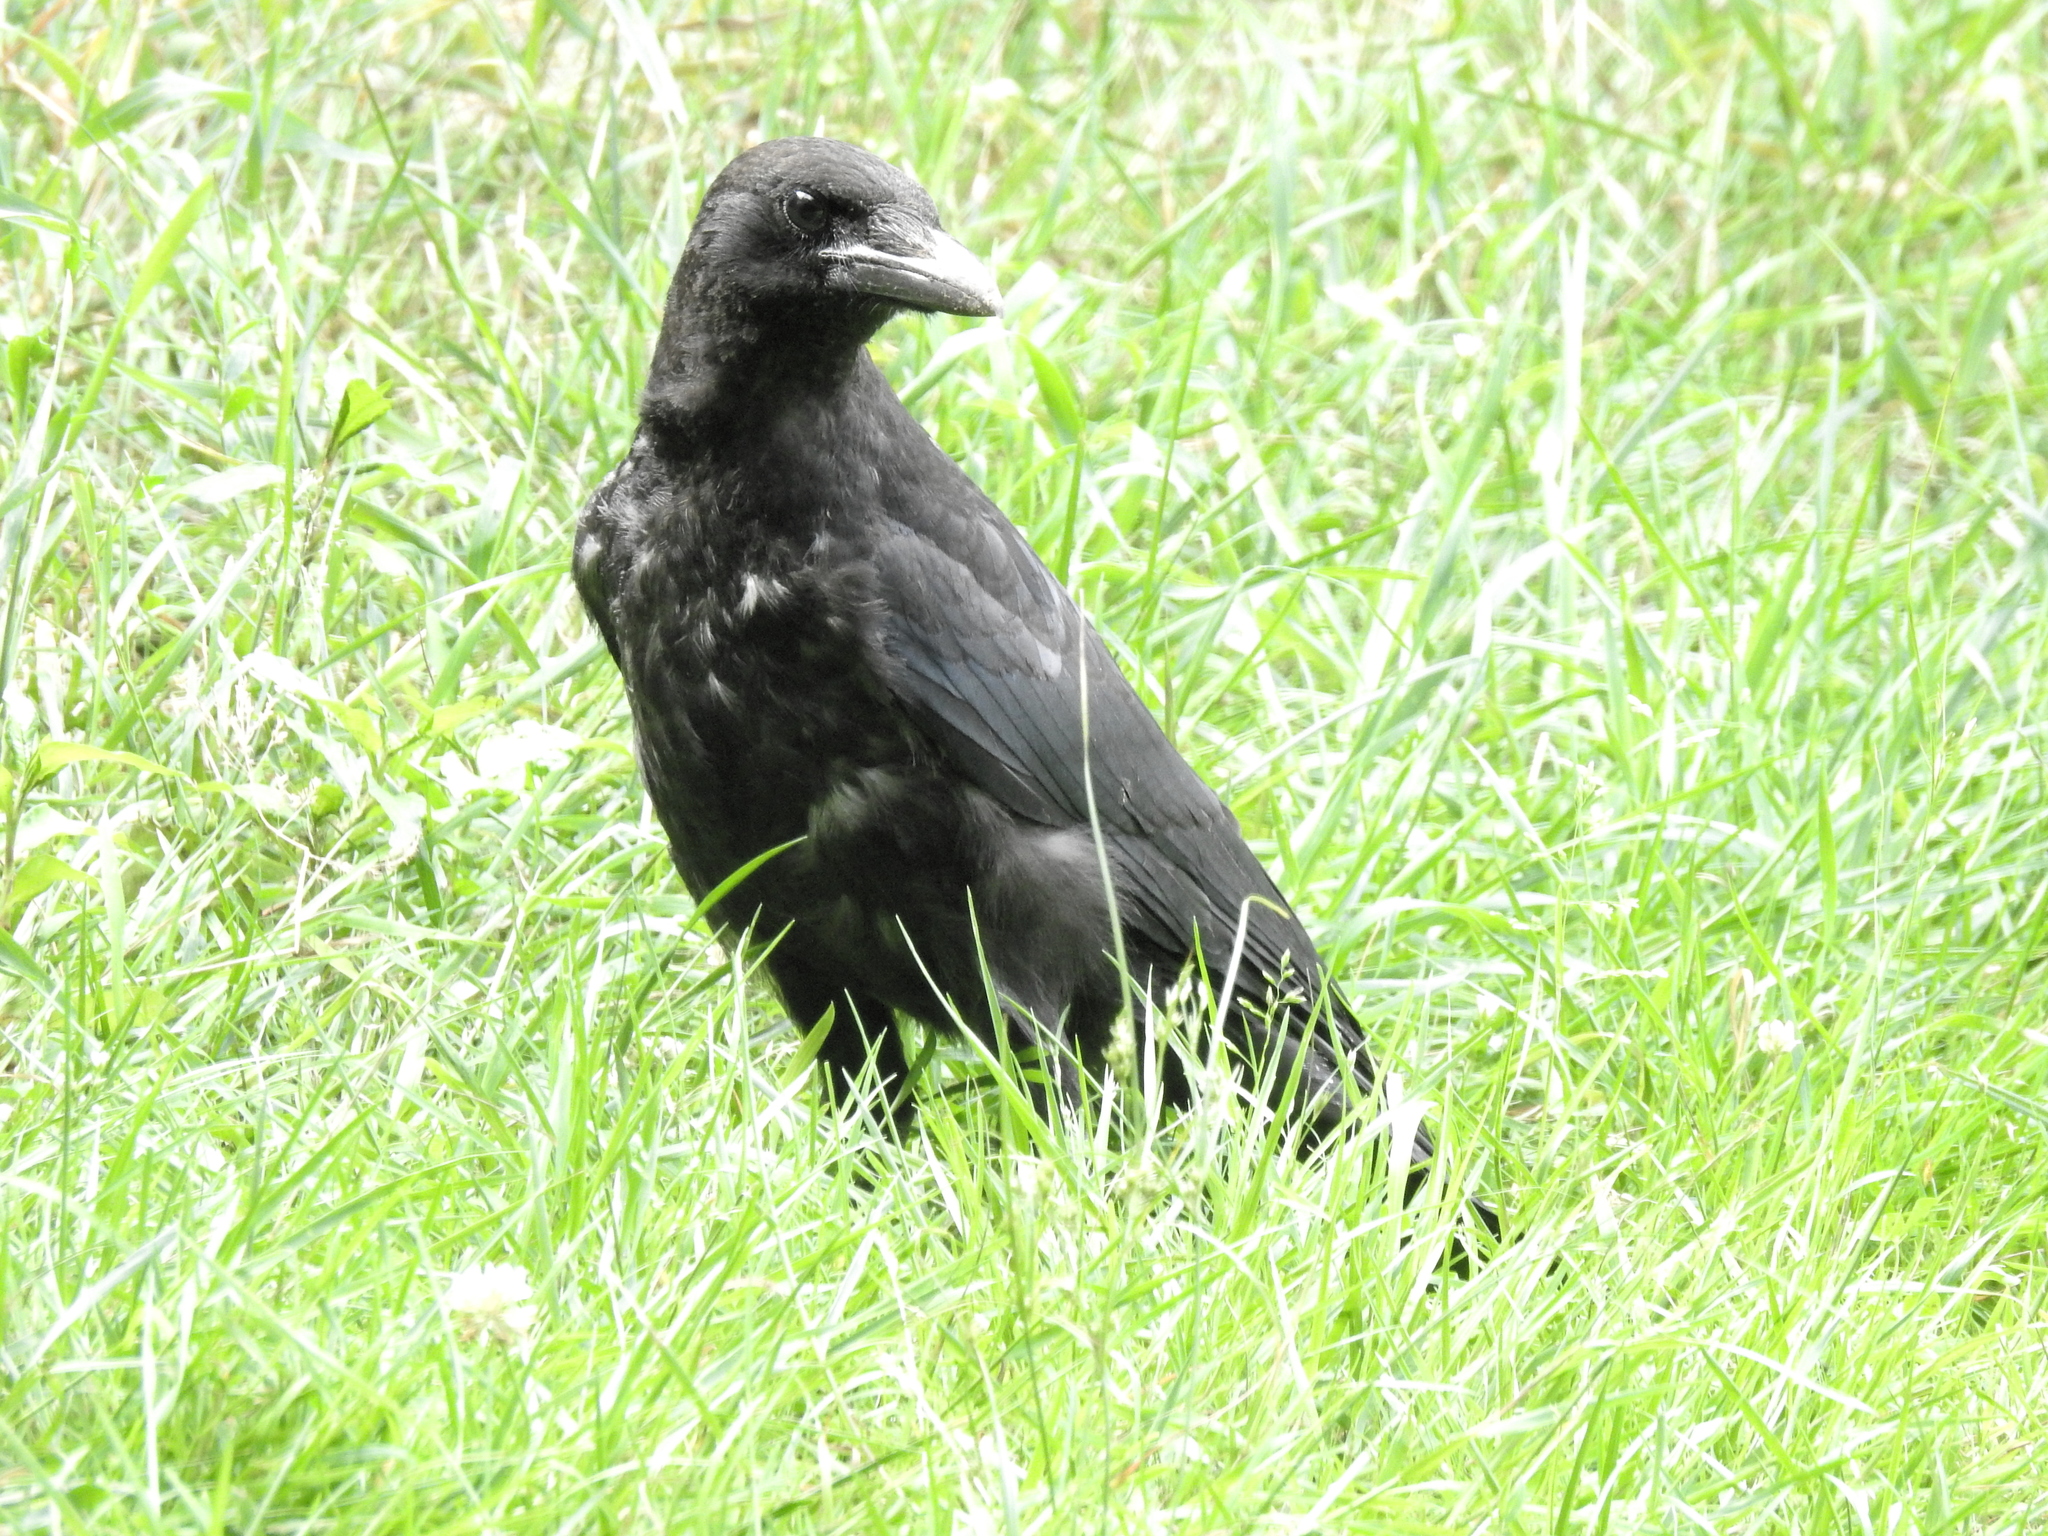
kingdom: Animalia
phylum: Chordata
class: Aves
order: Passeriformes
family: Corvidae
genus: Corvus
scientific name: Corvus corone
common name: Carrion crow
